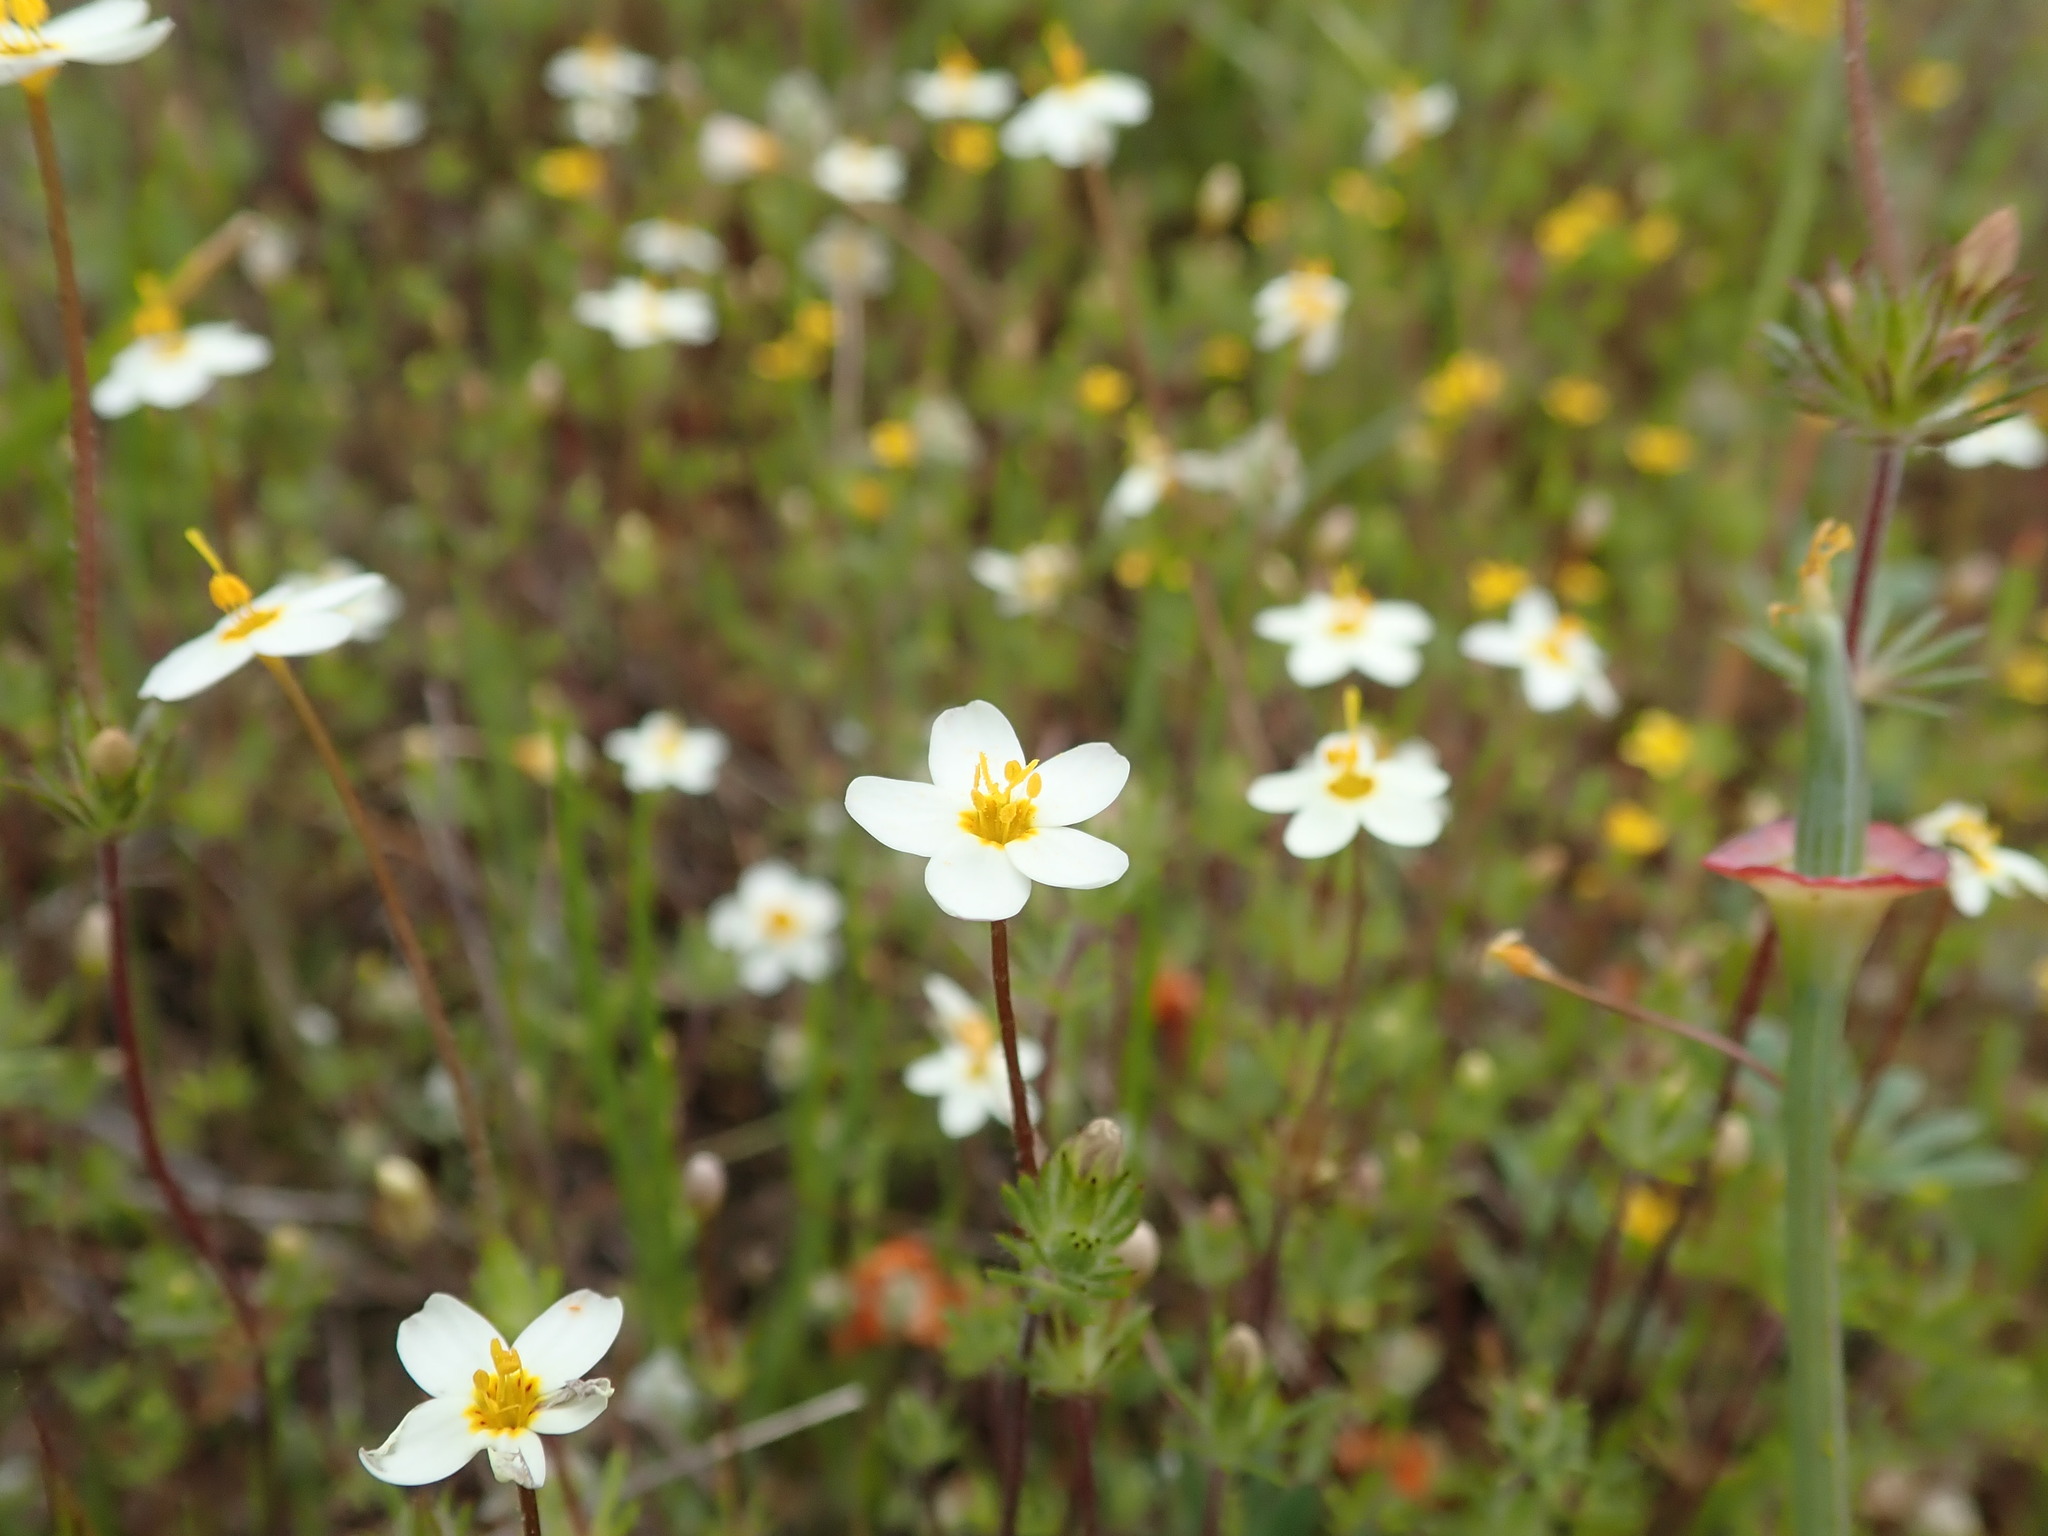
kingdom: Plantae
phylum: Tracheophyta
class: Magnoliopsida
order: Ericales
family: Polemoniaceae
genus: Leptosiphon
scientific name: Leptosiphon parviflorus
